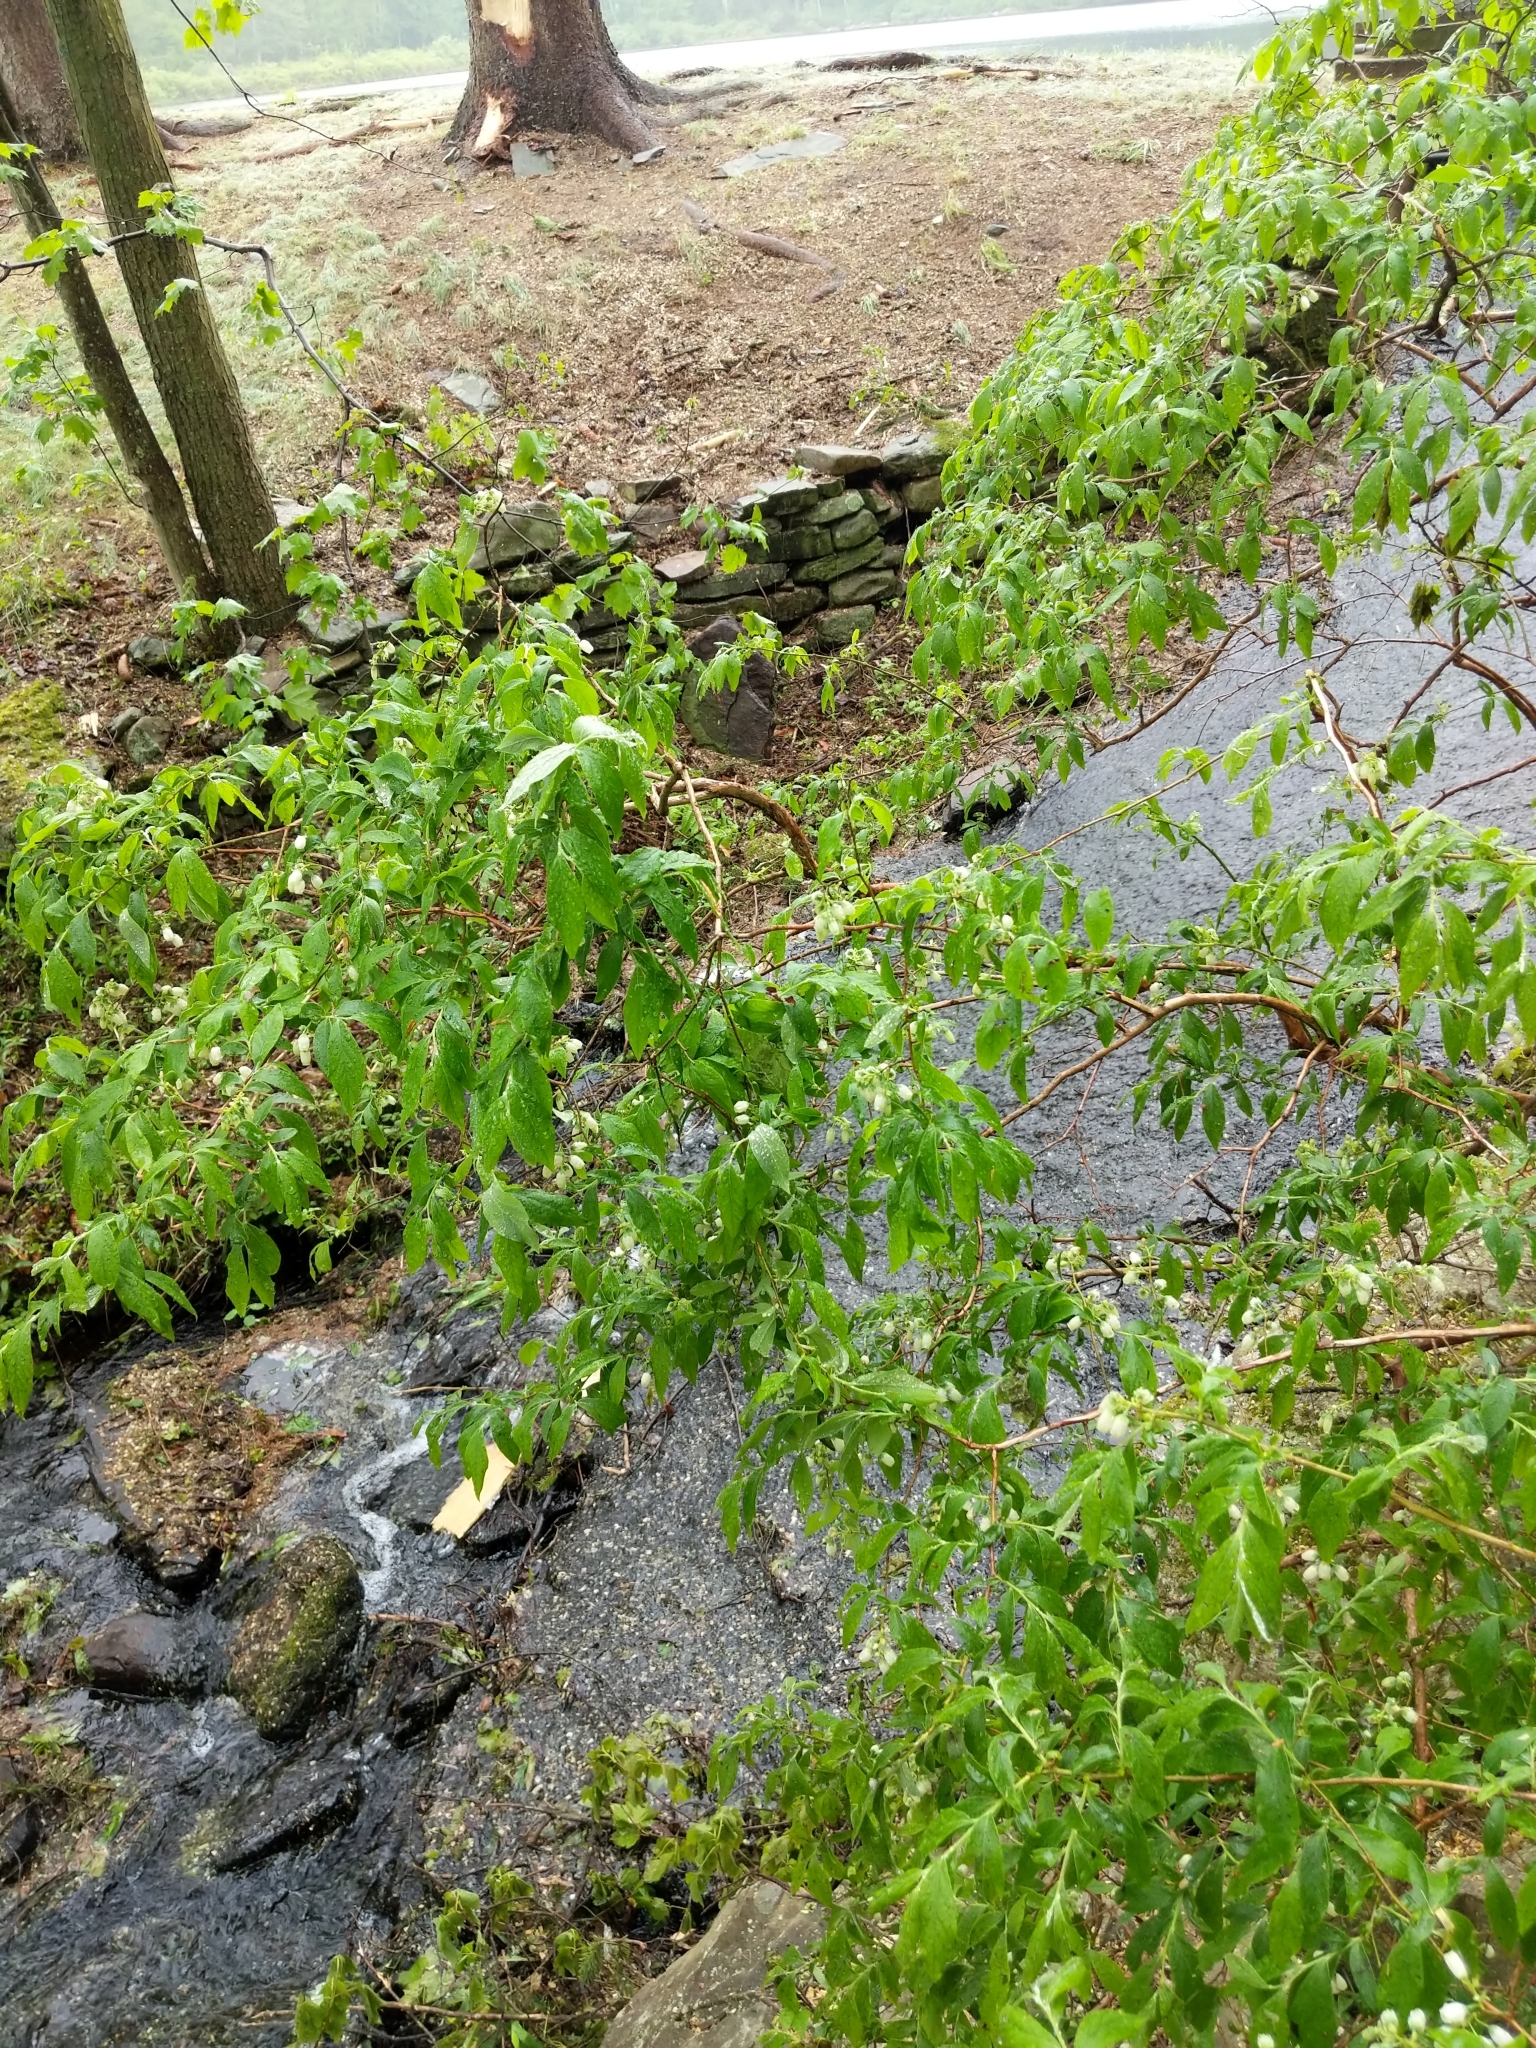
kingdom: Plantae
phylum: Tracheophyta
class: Magnoliopsida
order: Ericales
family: Ericaceae
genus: Vaccinium
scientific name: Vaccinium corymbosum
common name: Blueberry
